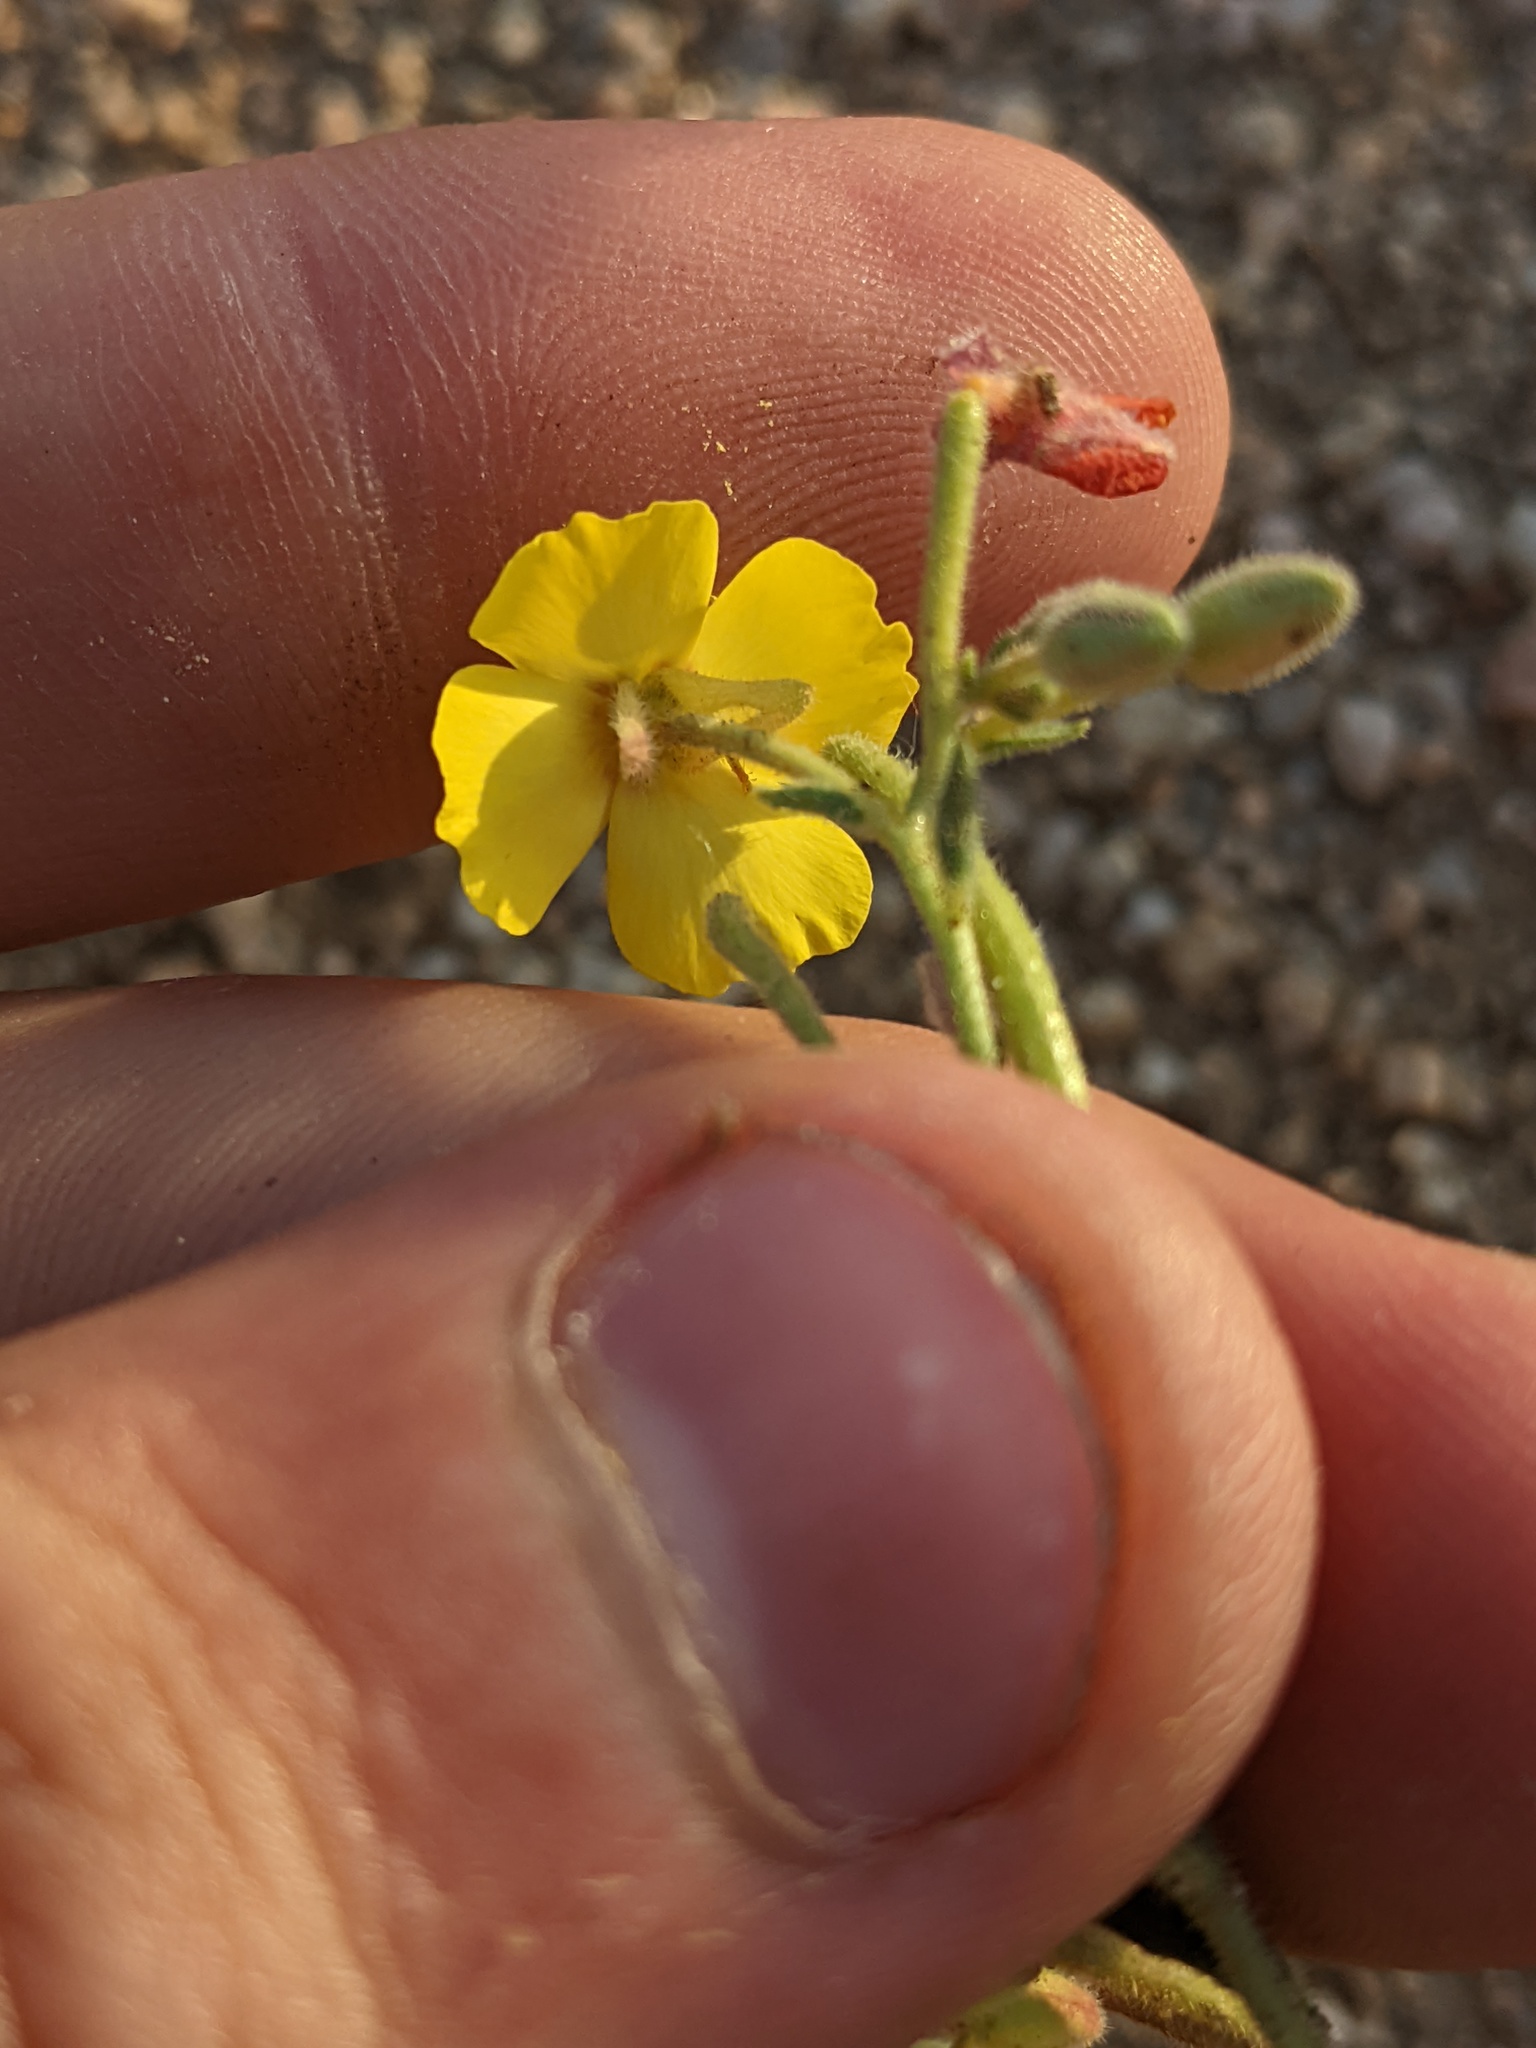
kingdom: Plantae
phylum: Tracheophyta
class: Magnoliopsida
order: Myrtales
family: Onagraceae
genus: Camissonia
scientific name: Camissonia kernensis
